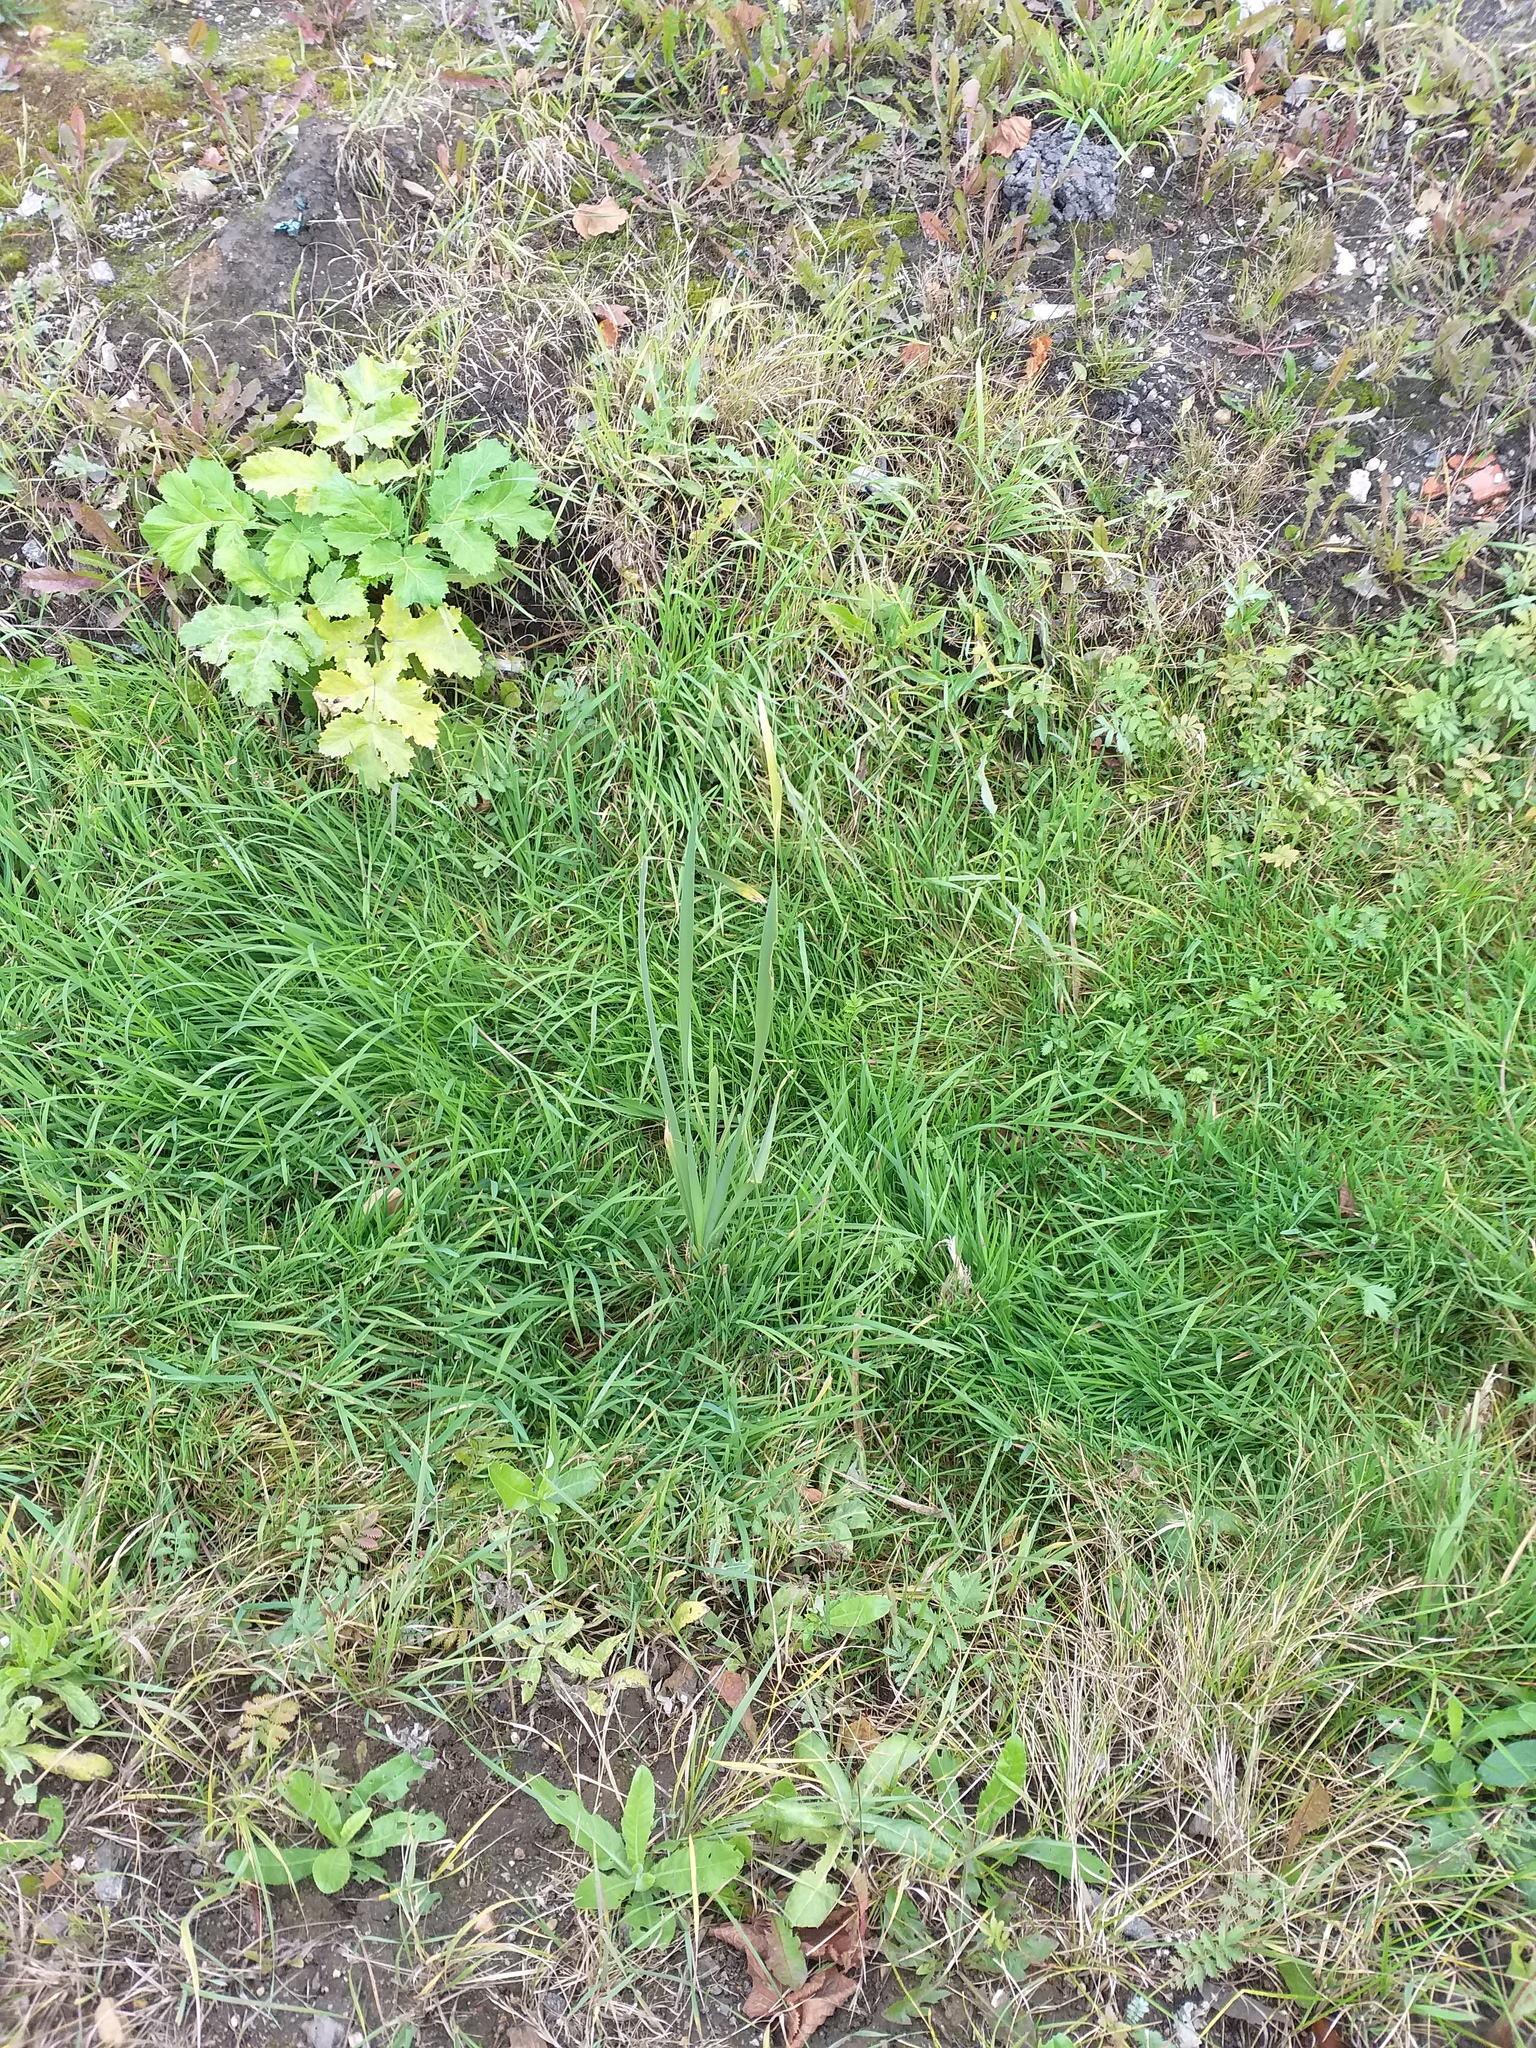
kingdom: Plantae
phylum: Tracheophyta
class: Liliopsida
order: Poales
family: Typhaceae
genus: Typha
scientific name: Typha latifolia
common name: Broadleaf cattail
